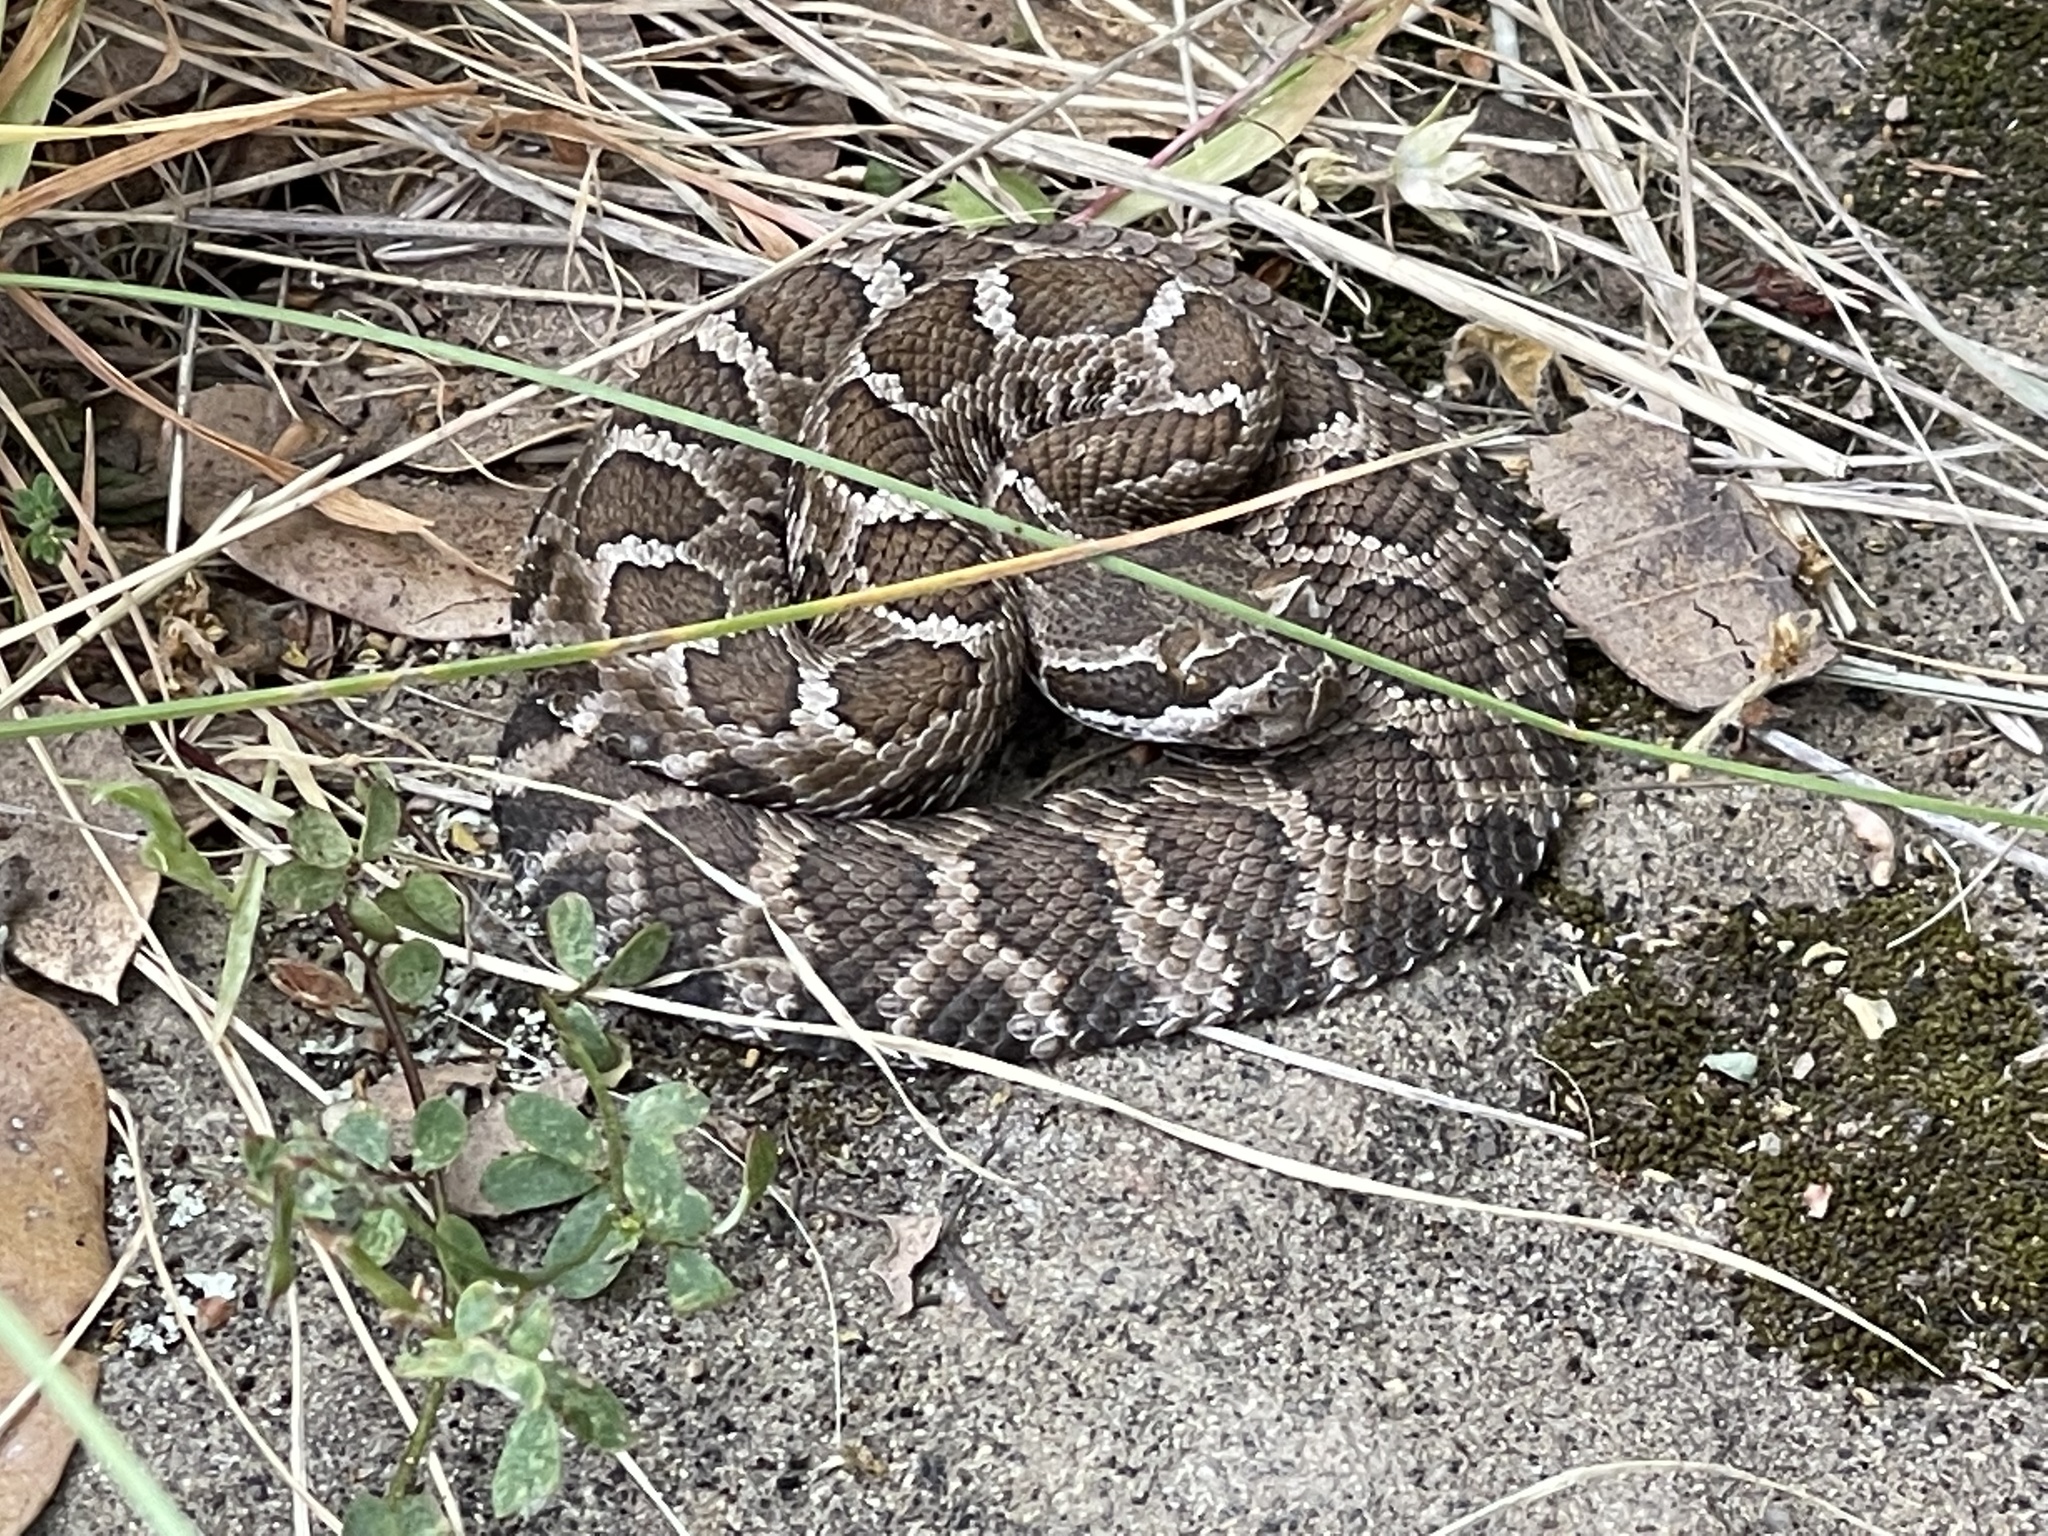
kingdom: Animalia
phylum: Chordata
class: Squamata
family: Viperidae
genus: Crotalus
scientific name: Crotalus oreganus
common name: Abyssus
